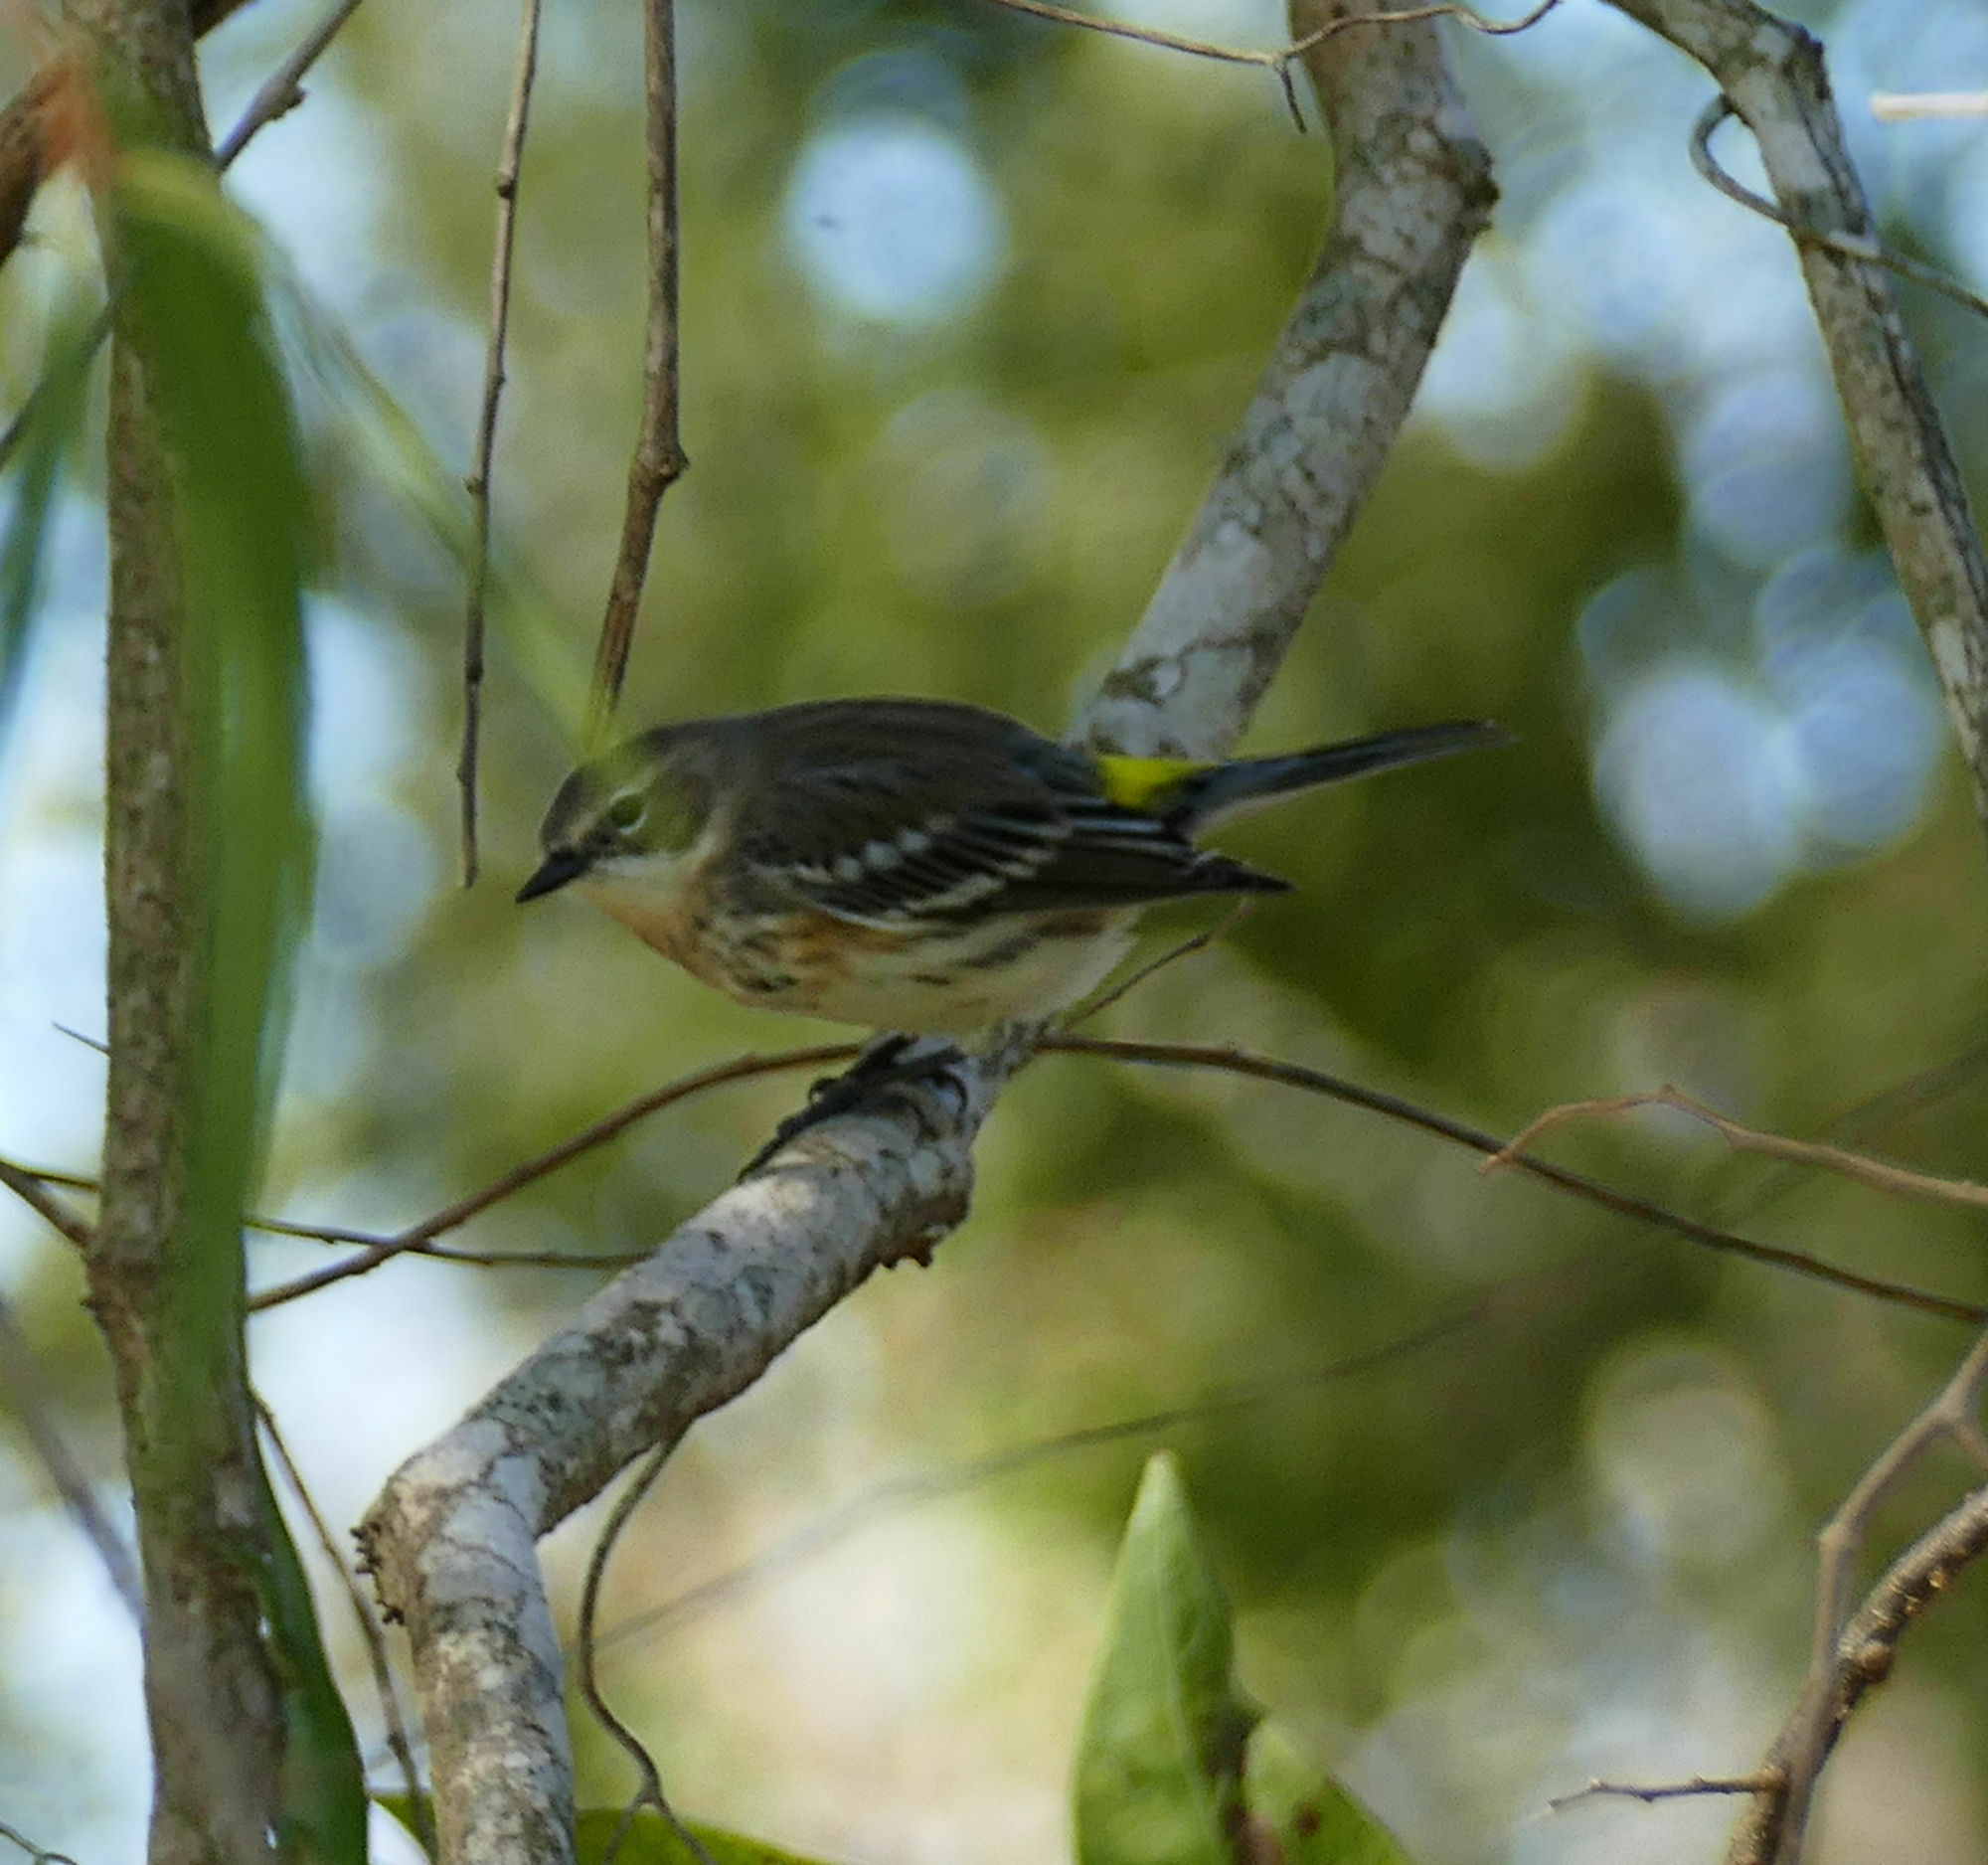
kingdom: Animalia
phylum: Chordata
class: Aves
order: Passeriformes
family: Parulidae
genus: Setophaga
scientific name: Setophaga coronata
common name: Myrtle warbler
